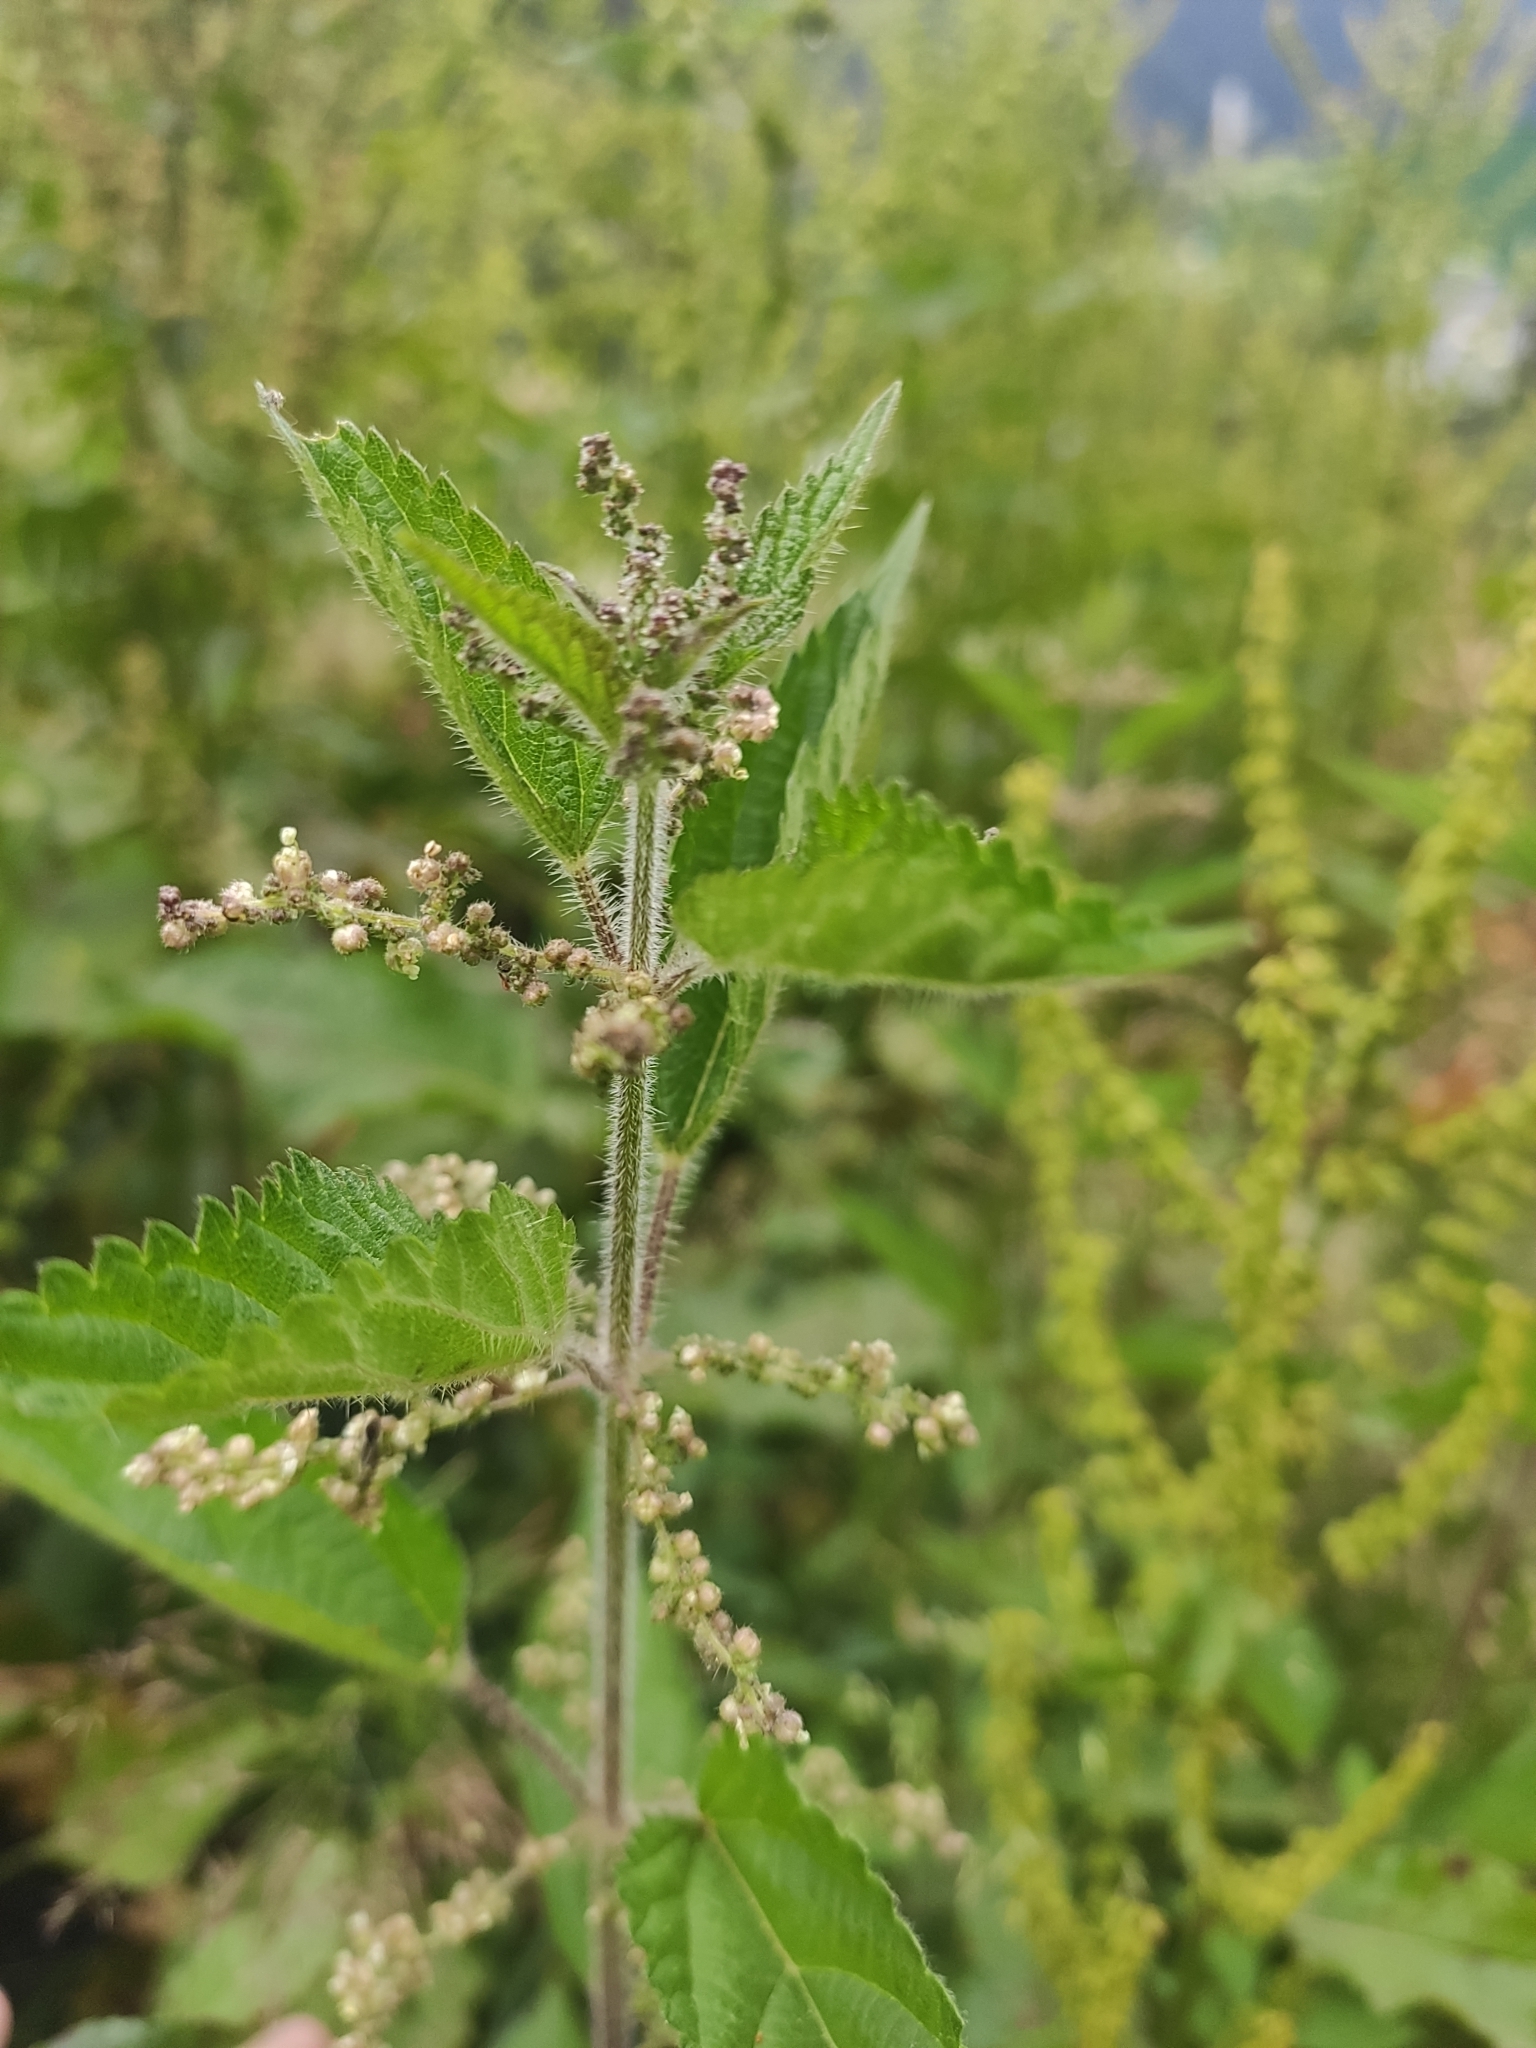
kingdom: Plantae
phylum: Tracheophyta
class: Magnoliopsida
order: Rosales
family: Urticaceae
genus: Urtica
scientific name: Urtica dioica
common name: Common nettle
